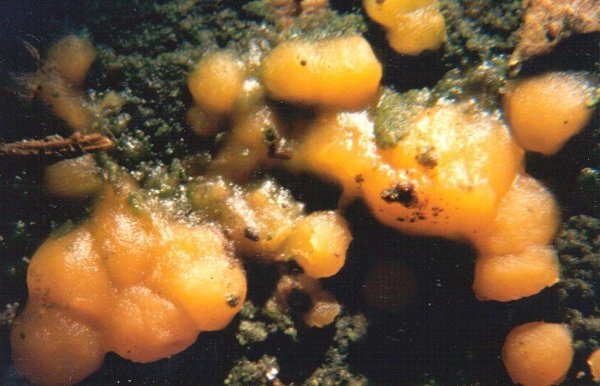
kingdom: Fungi
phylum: Basidiomycota
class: Dacrymycetes
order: Dacrymycetales
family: Dacrymycetaceae
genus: Dacrymyces
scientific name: Dacrymyces stillatus
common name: Common jelly spot
